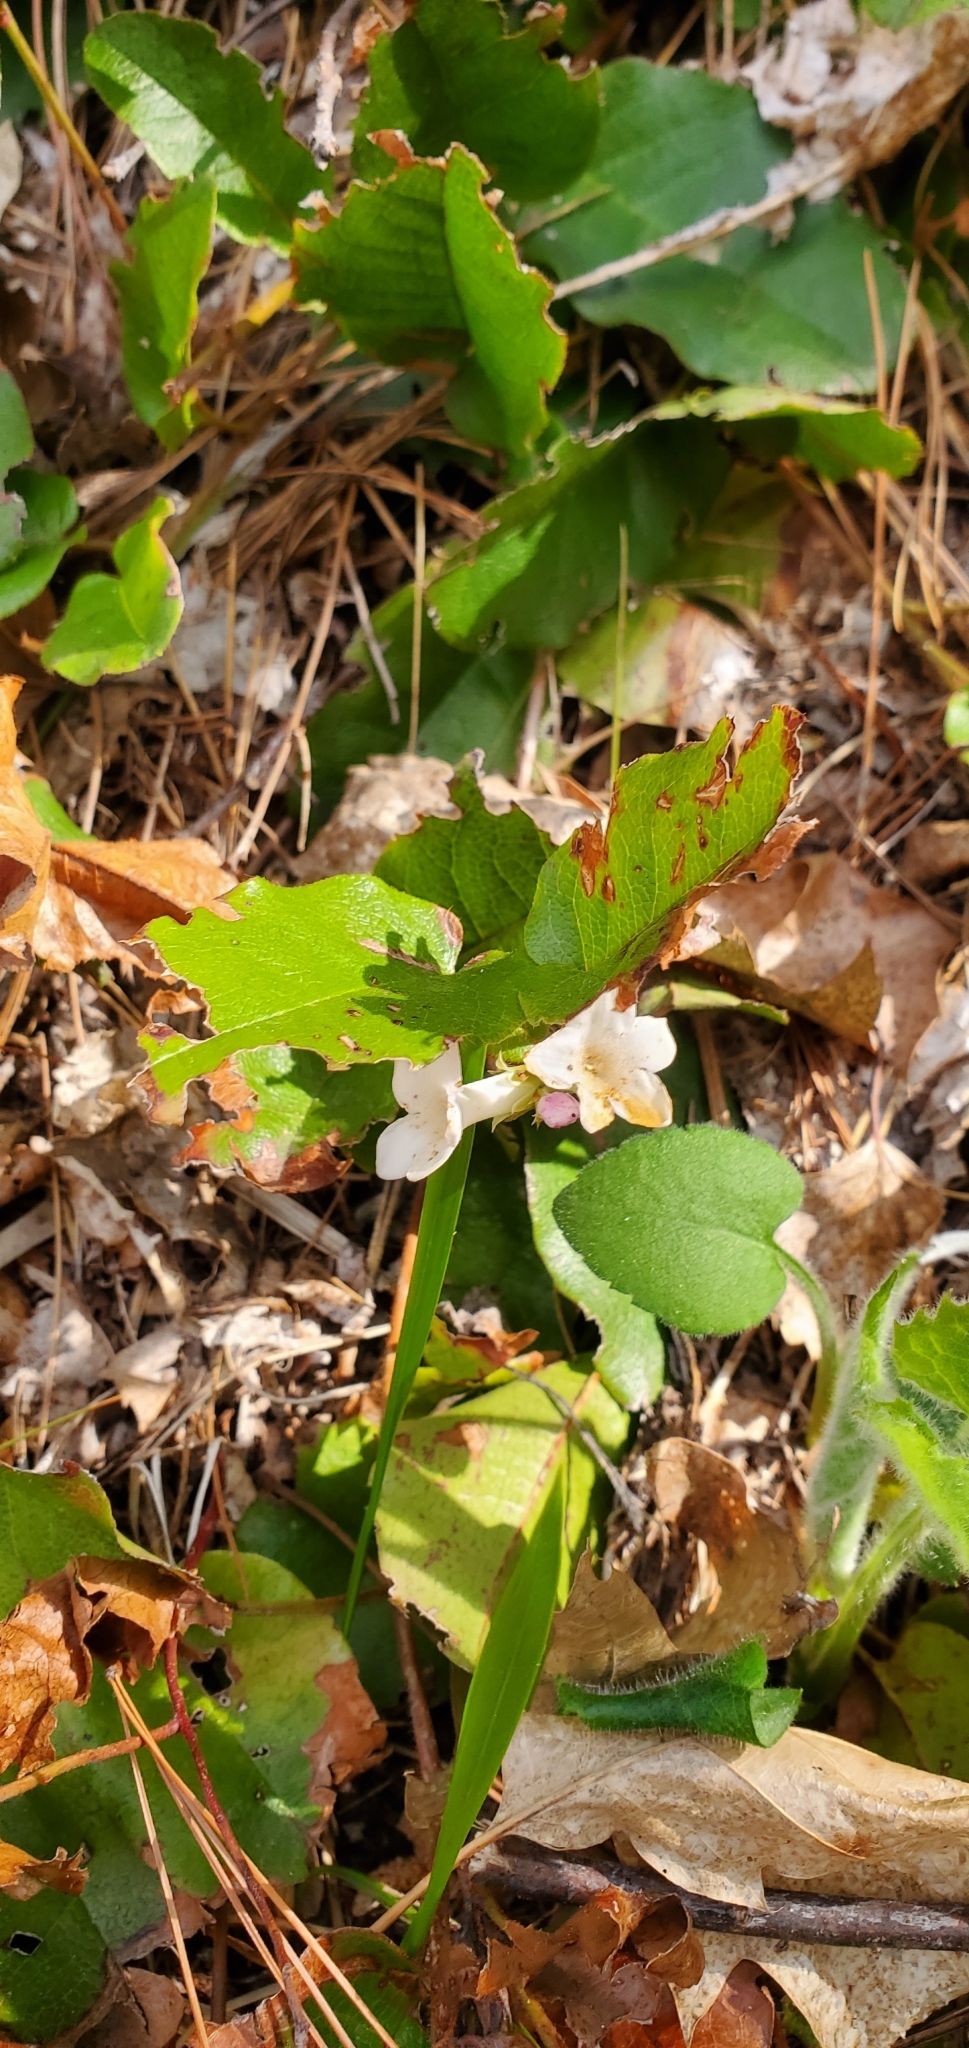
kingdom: Plantae
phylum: Tracheophyta
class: Magnoliopsida
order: Ericales
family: Ericaceae
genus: Epigaea
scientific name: Epigaea repens
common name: Gravelroot
